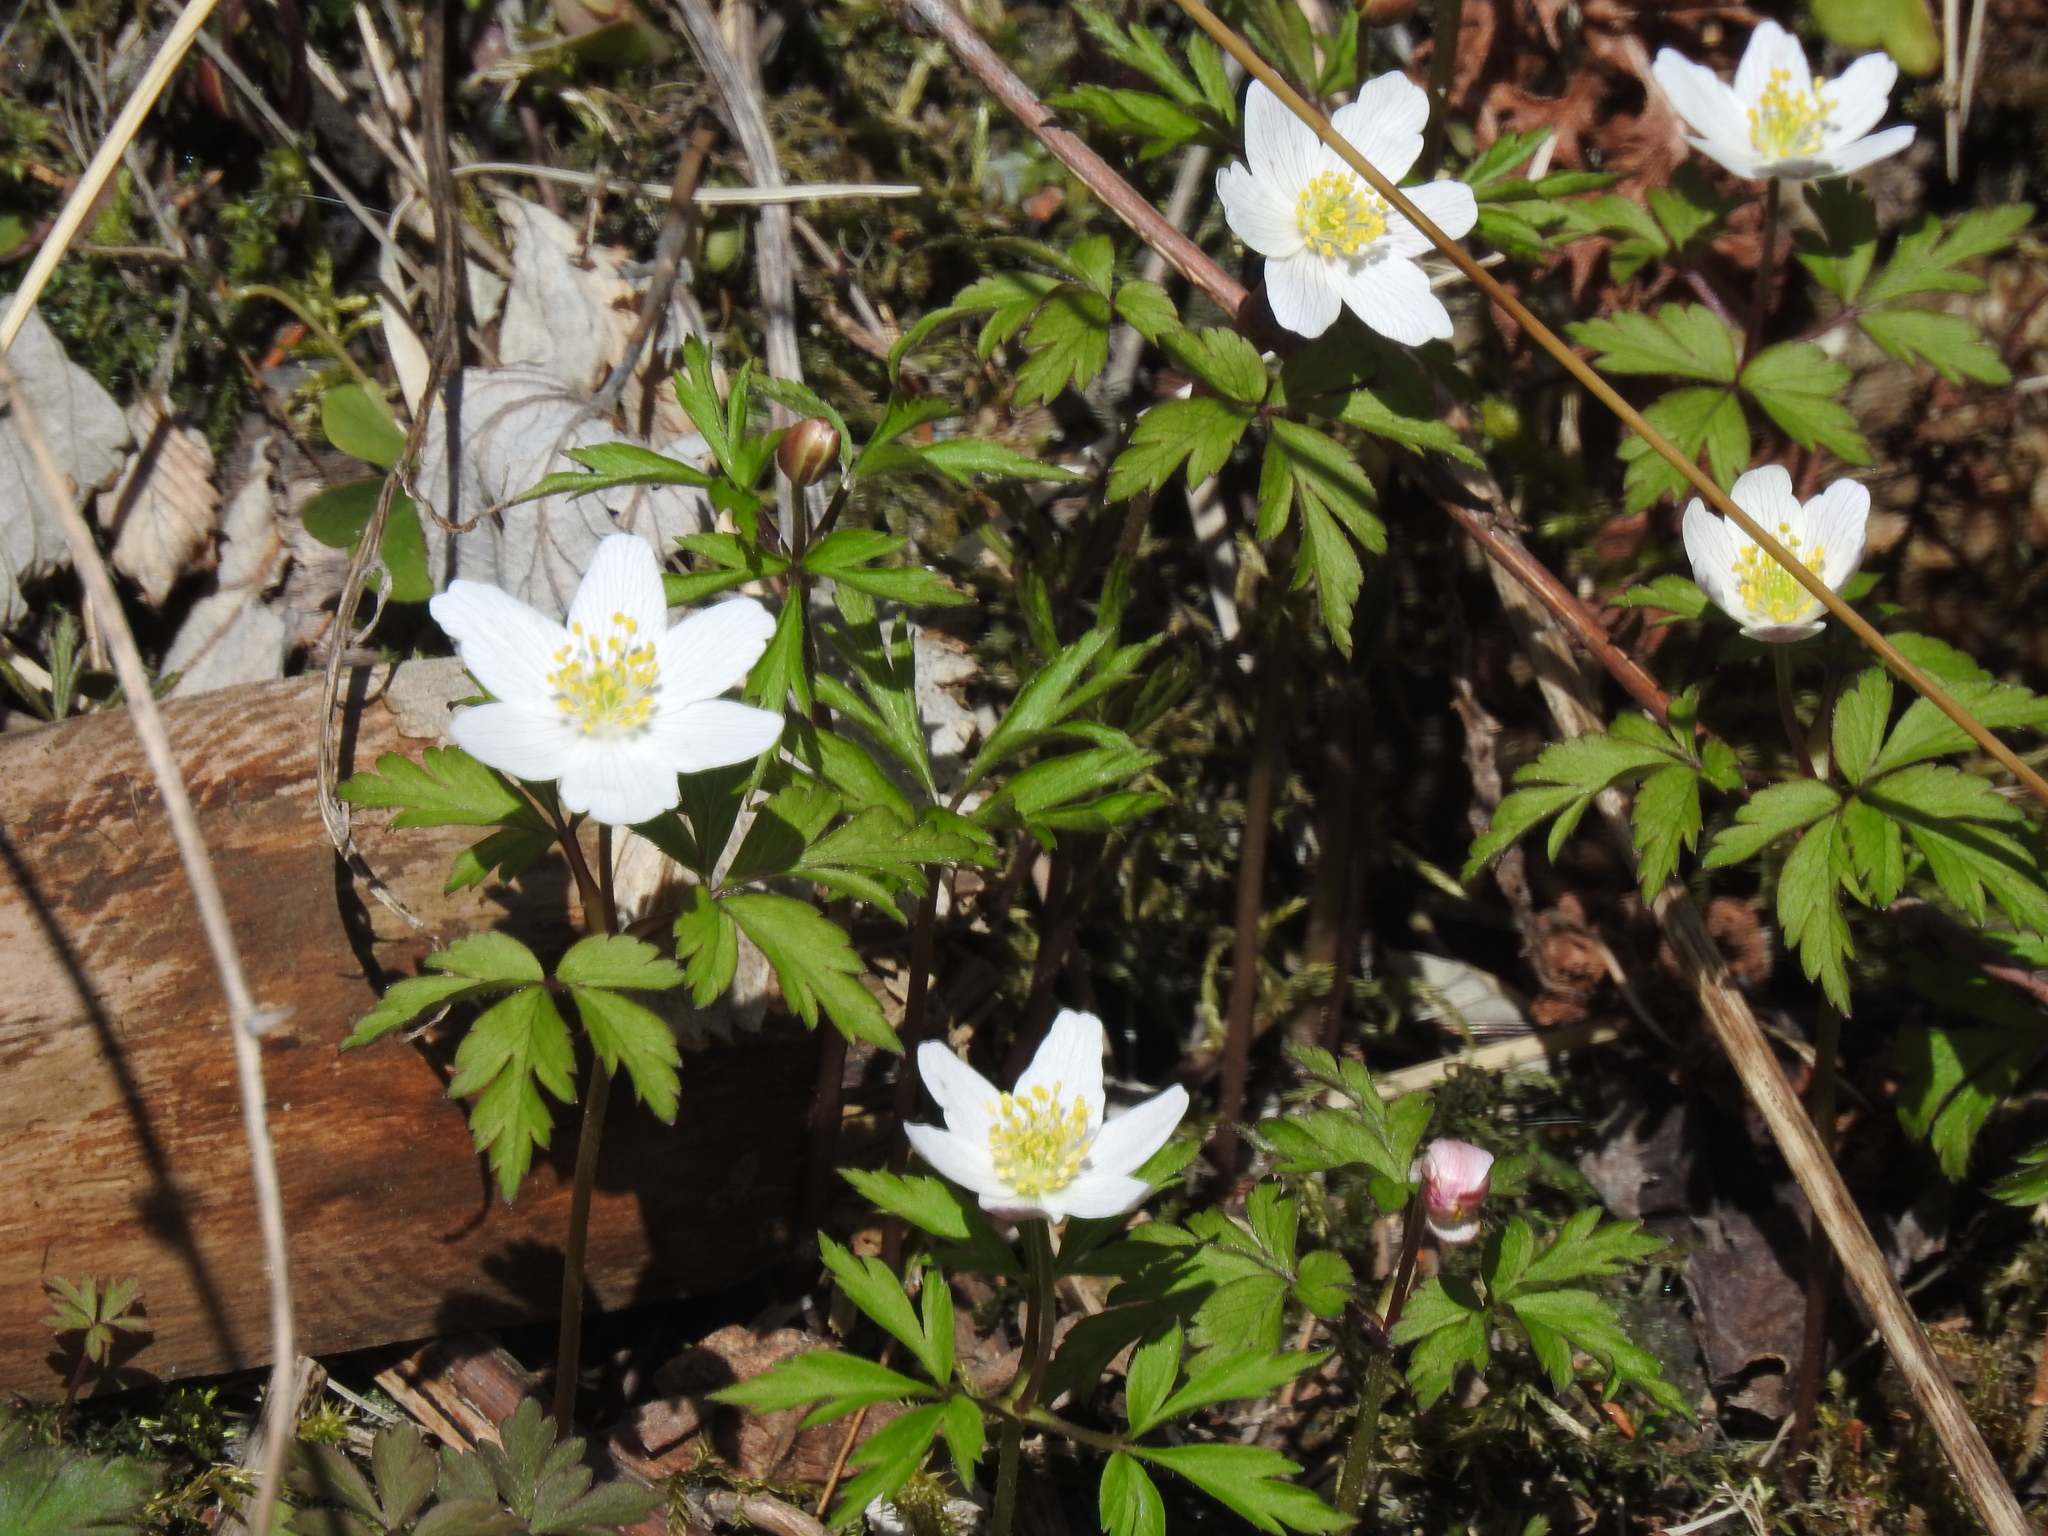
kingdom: Plantae
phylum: Tracheophyta
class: Magnoliopsida
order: Ranunculales
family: Ranunculaceae
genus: Anemone
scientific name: Anemone nemorosa
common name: Wood anemone
